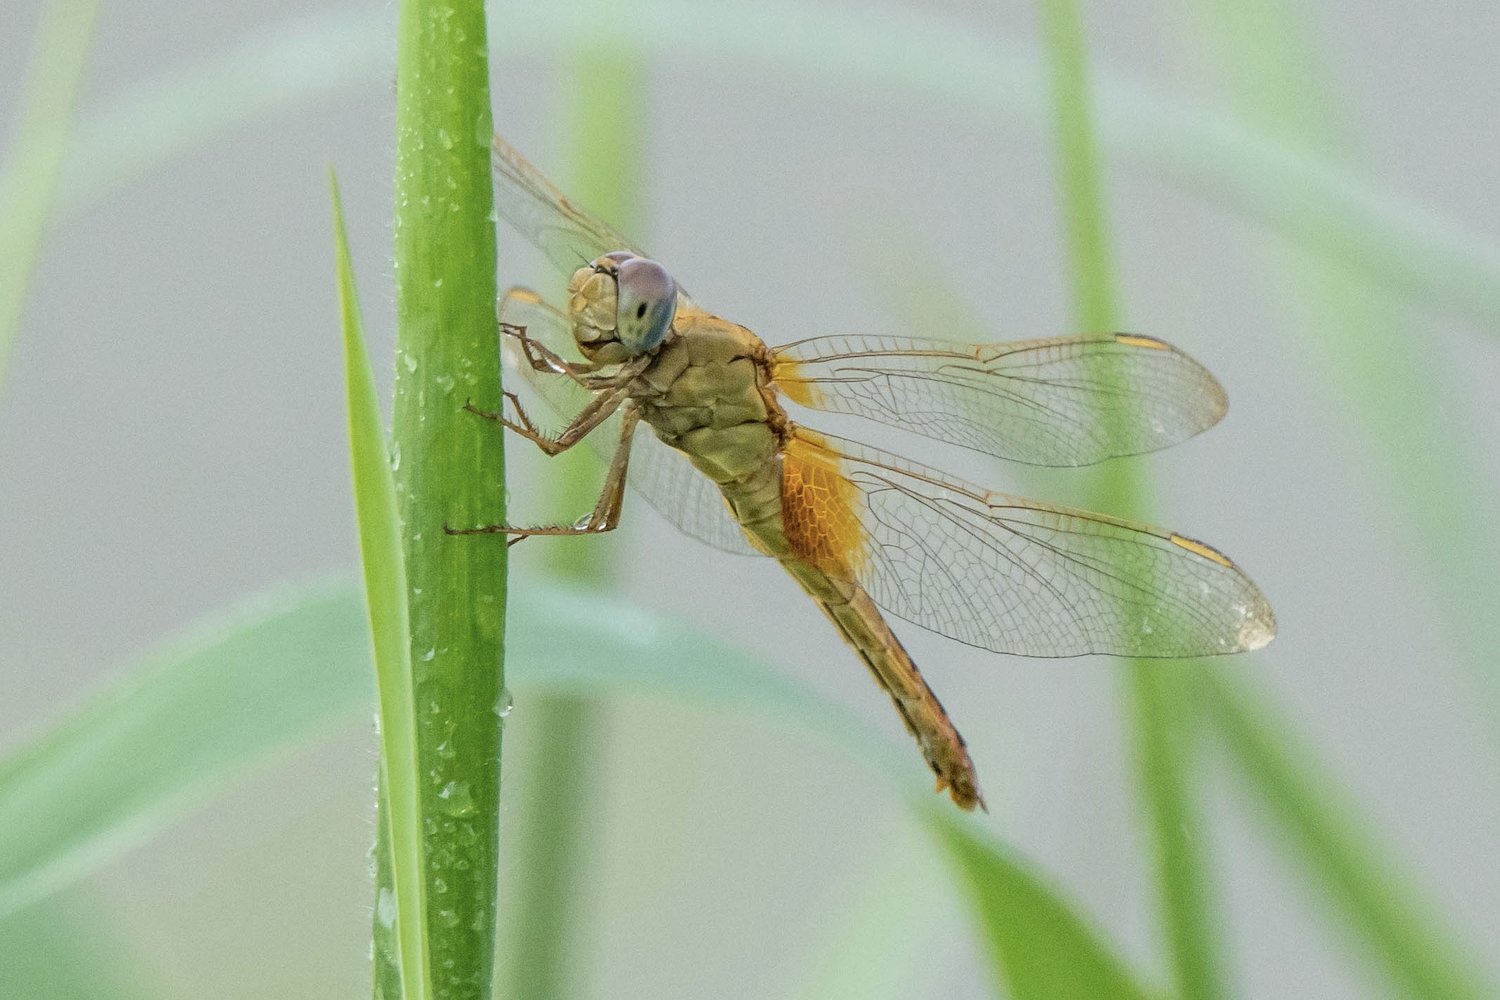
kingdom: Animalia
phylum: Arthropoda
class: Insecta
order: Odonata
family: Libellulidae
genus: Crocothemis
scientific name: Crocothemis servilia
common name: Scarlet skimmer
